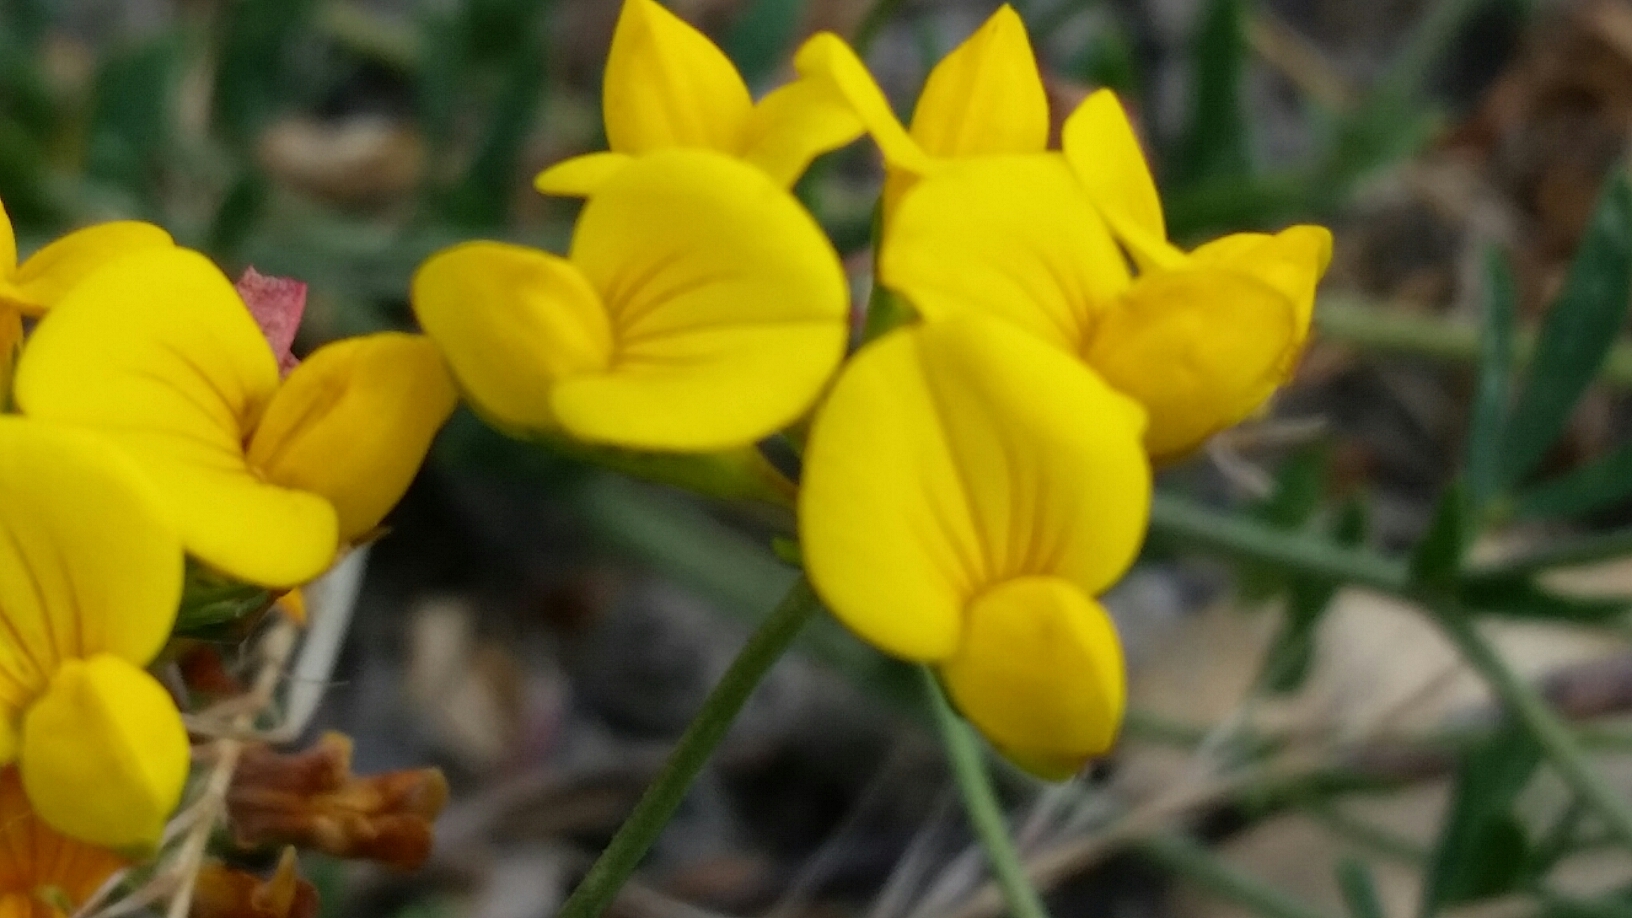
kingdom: Plantae
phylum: Tracheophyta
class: Magnoliopsida
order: Fabales
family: Fabaceae
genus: Lotus
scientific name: Lotus corniculatus
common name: Common bird's-foot-trefoil
